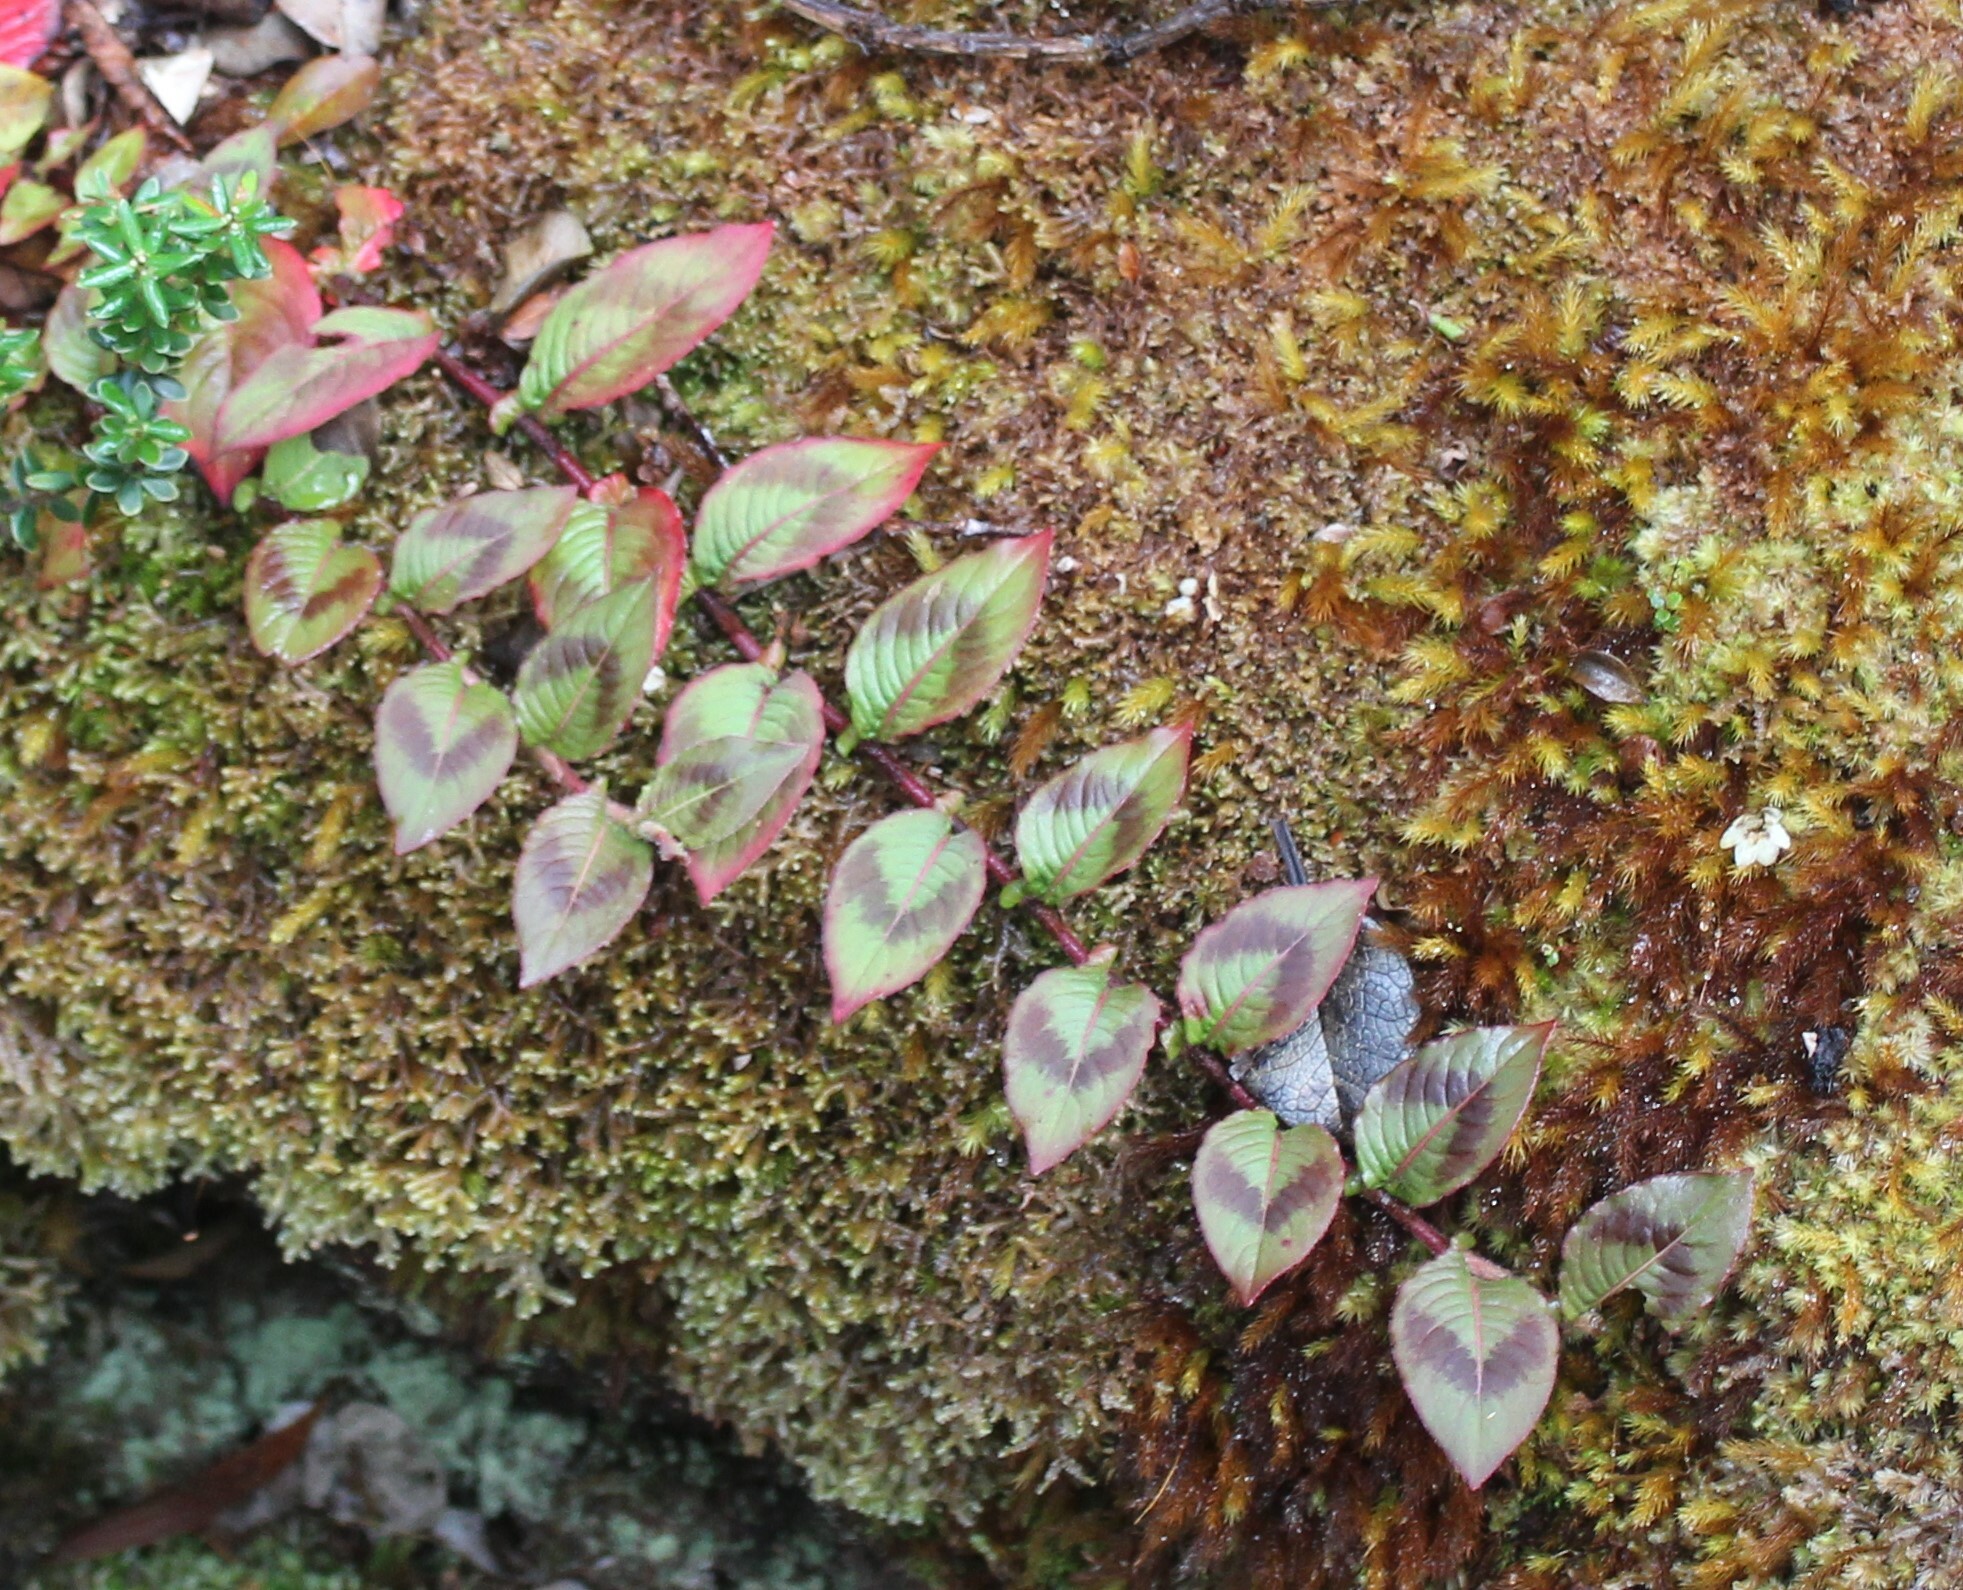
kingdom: Plantae
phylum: Tracheophyta
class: Magnoliopsida
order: Caryophyllales
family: Polygonaceae
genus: Persicaria
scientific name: Persicaria capitata
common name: Pinkhead smartweed
